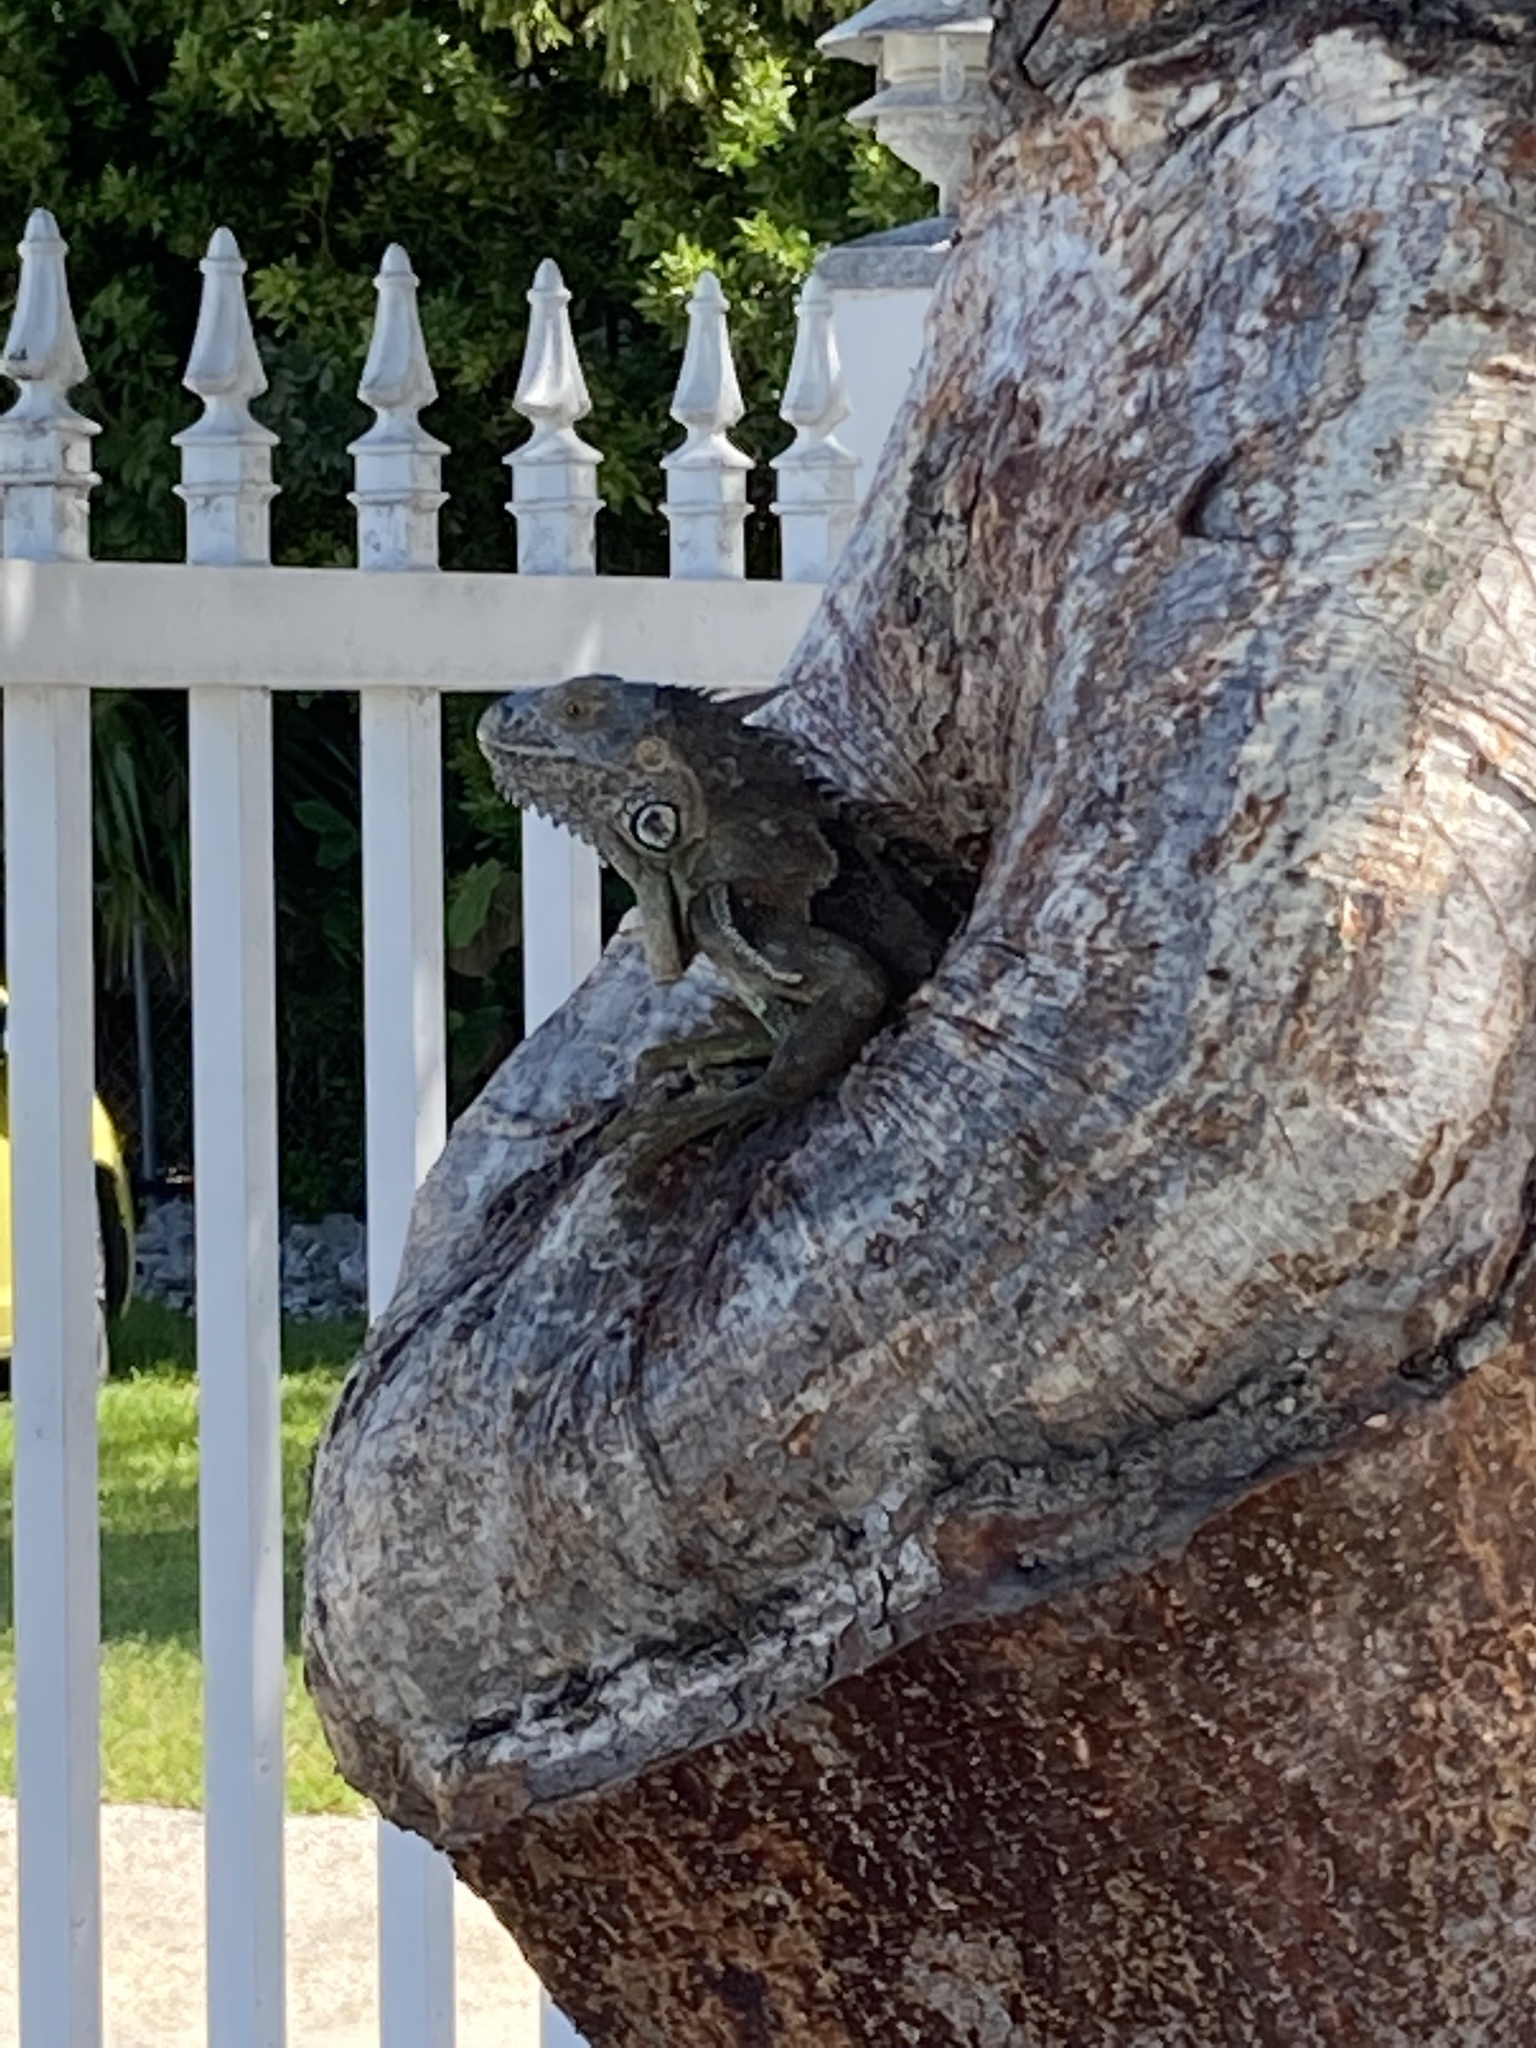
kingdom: Animalia
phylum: Chordata
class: Squamata
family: Iguanidae
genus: Iguana
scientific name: Iguana iguana
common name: Green iguana
